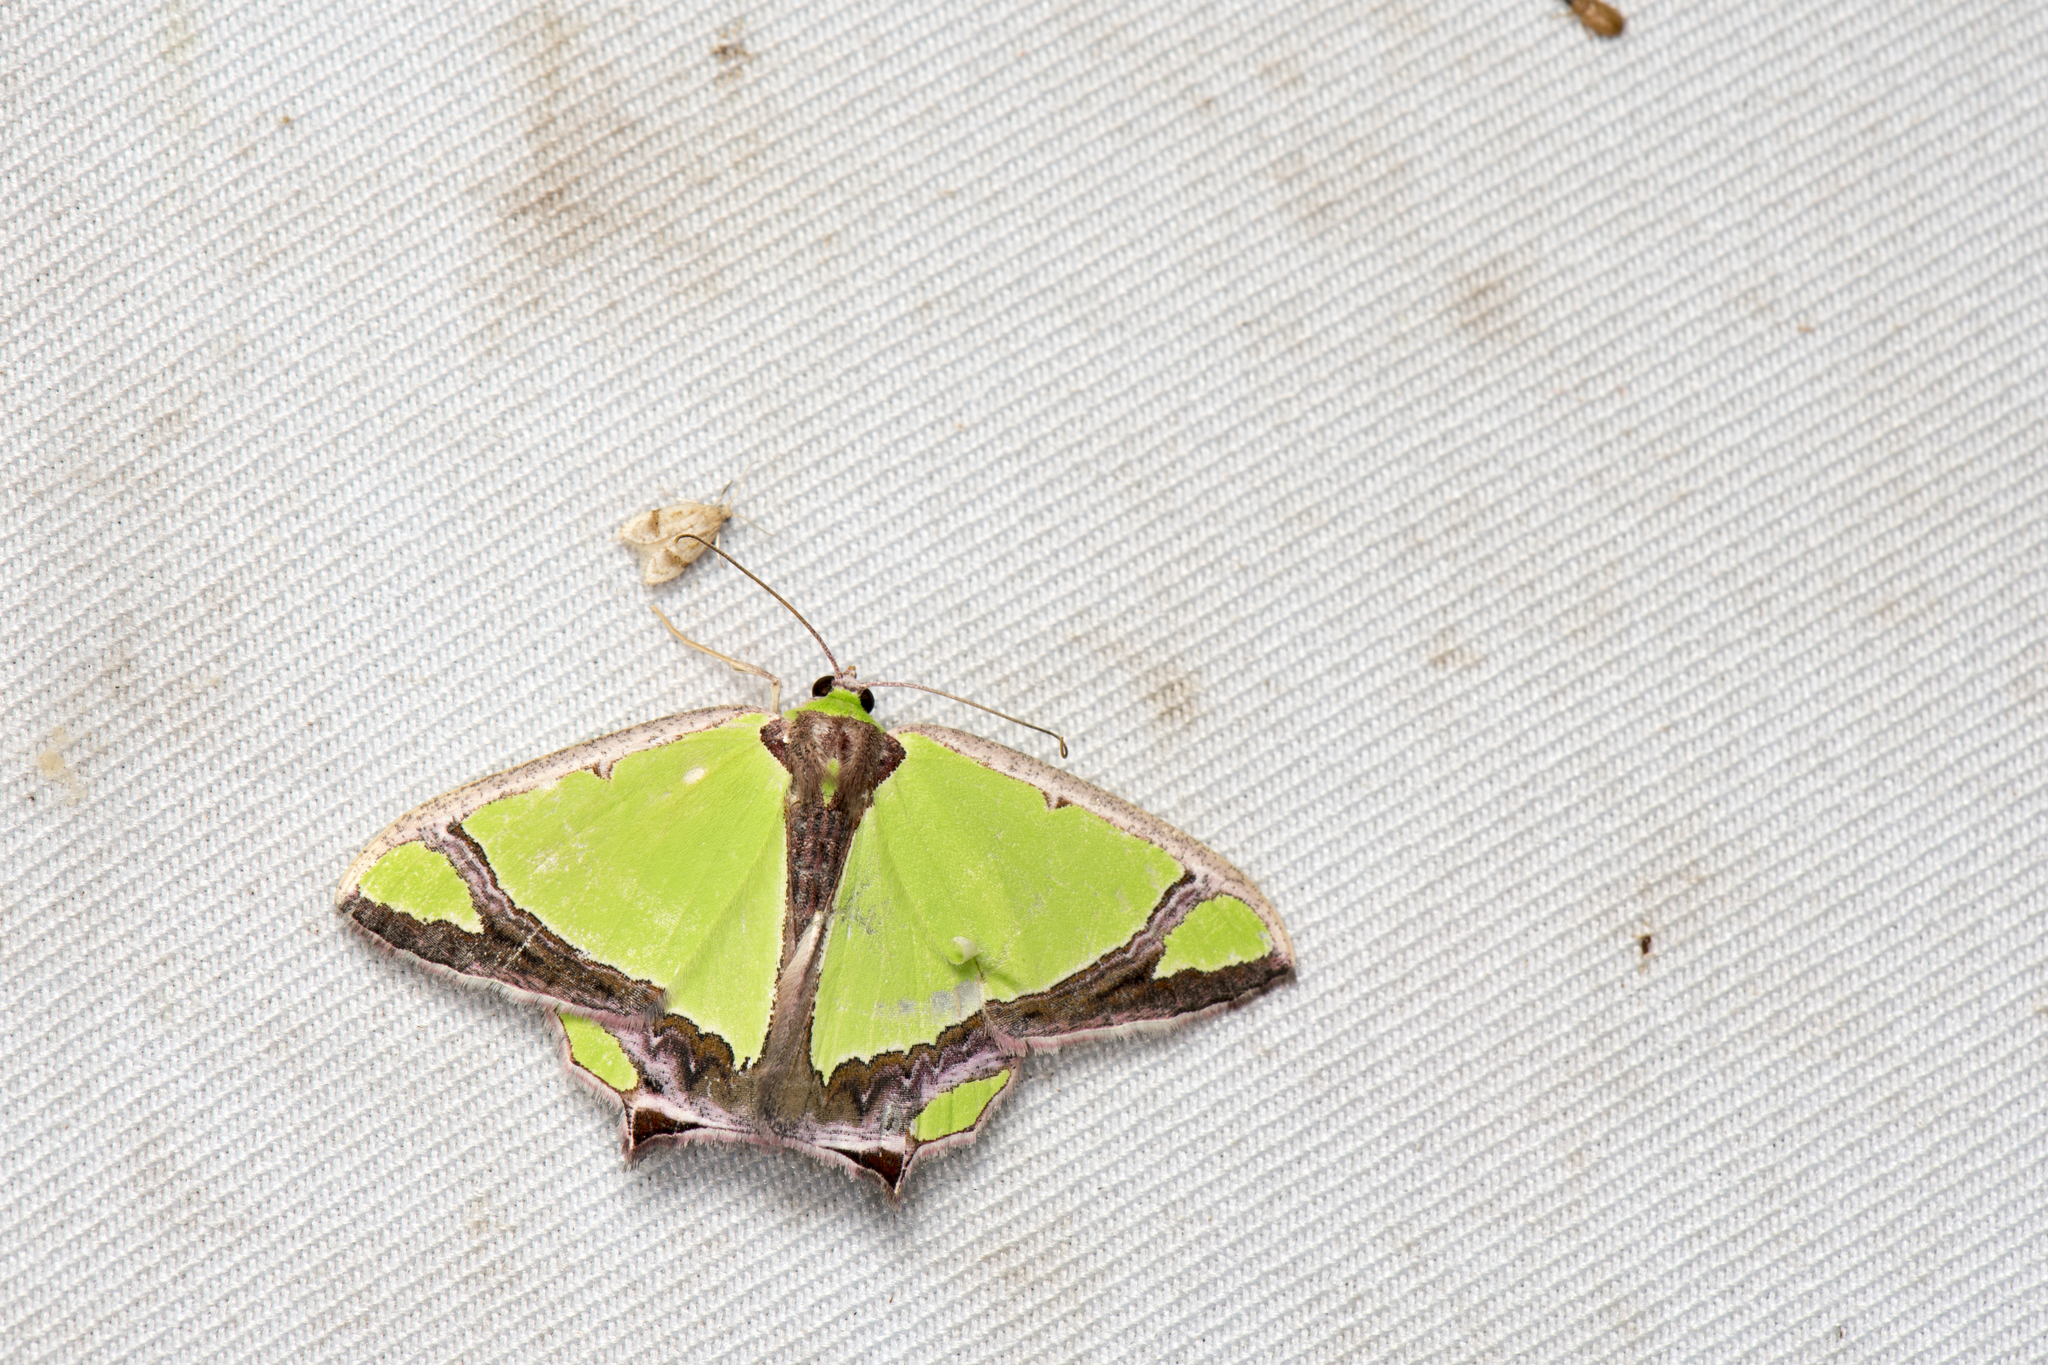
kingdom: Animalia
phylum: Arthropoda
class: Insecta
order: Lepidoptera
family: Geometridae
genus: Agathia
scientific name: Agathia laetata
